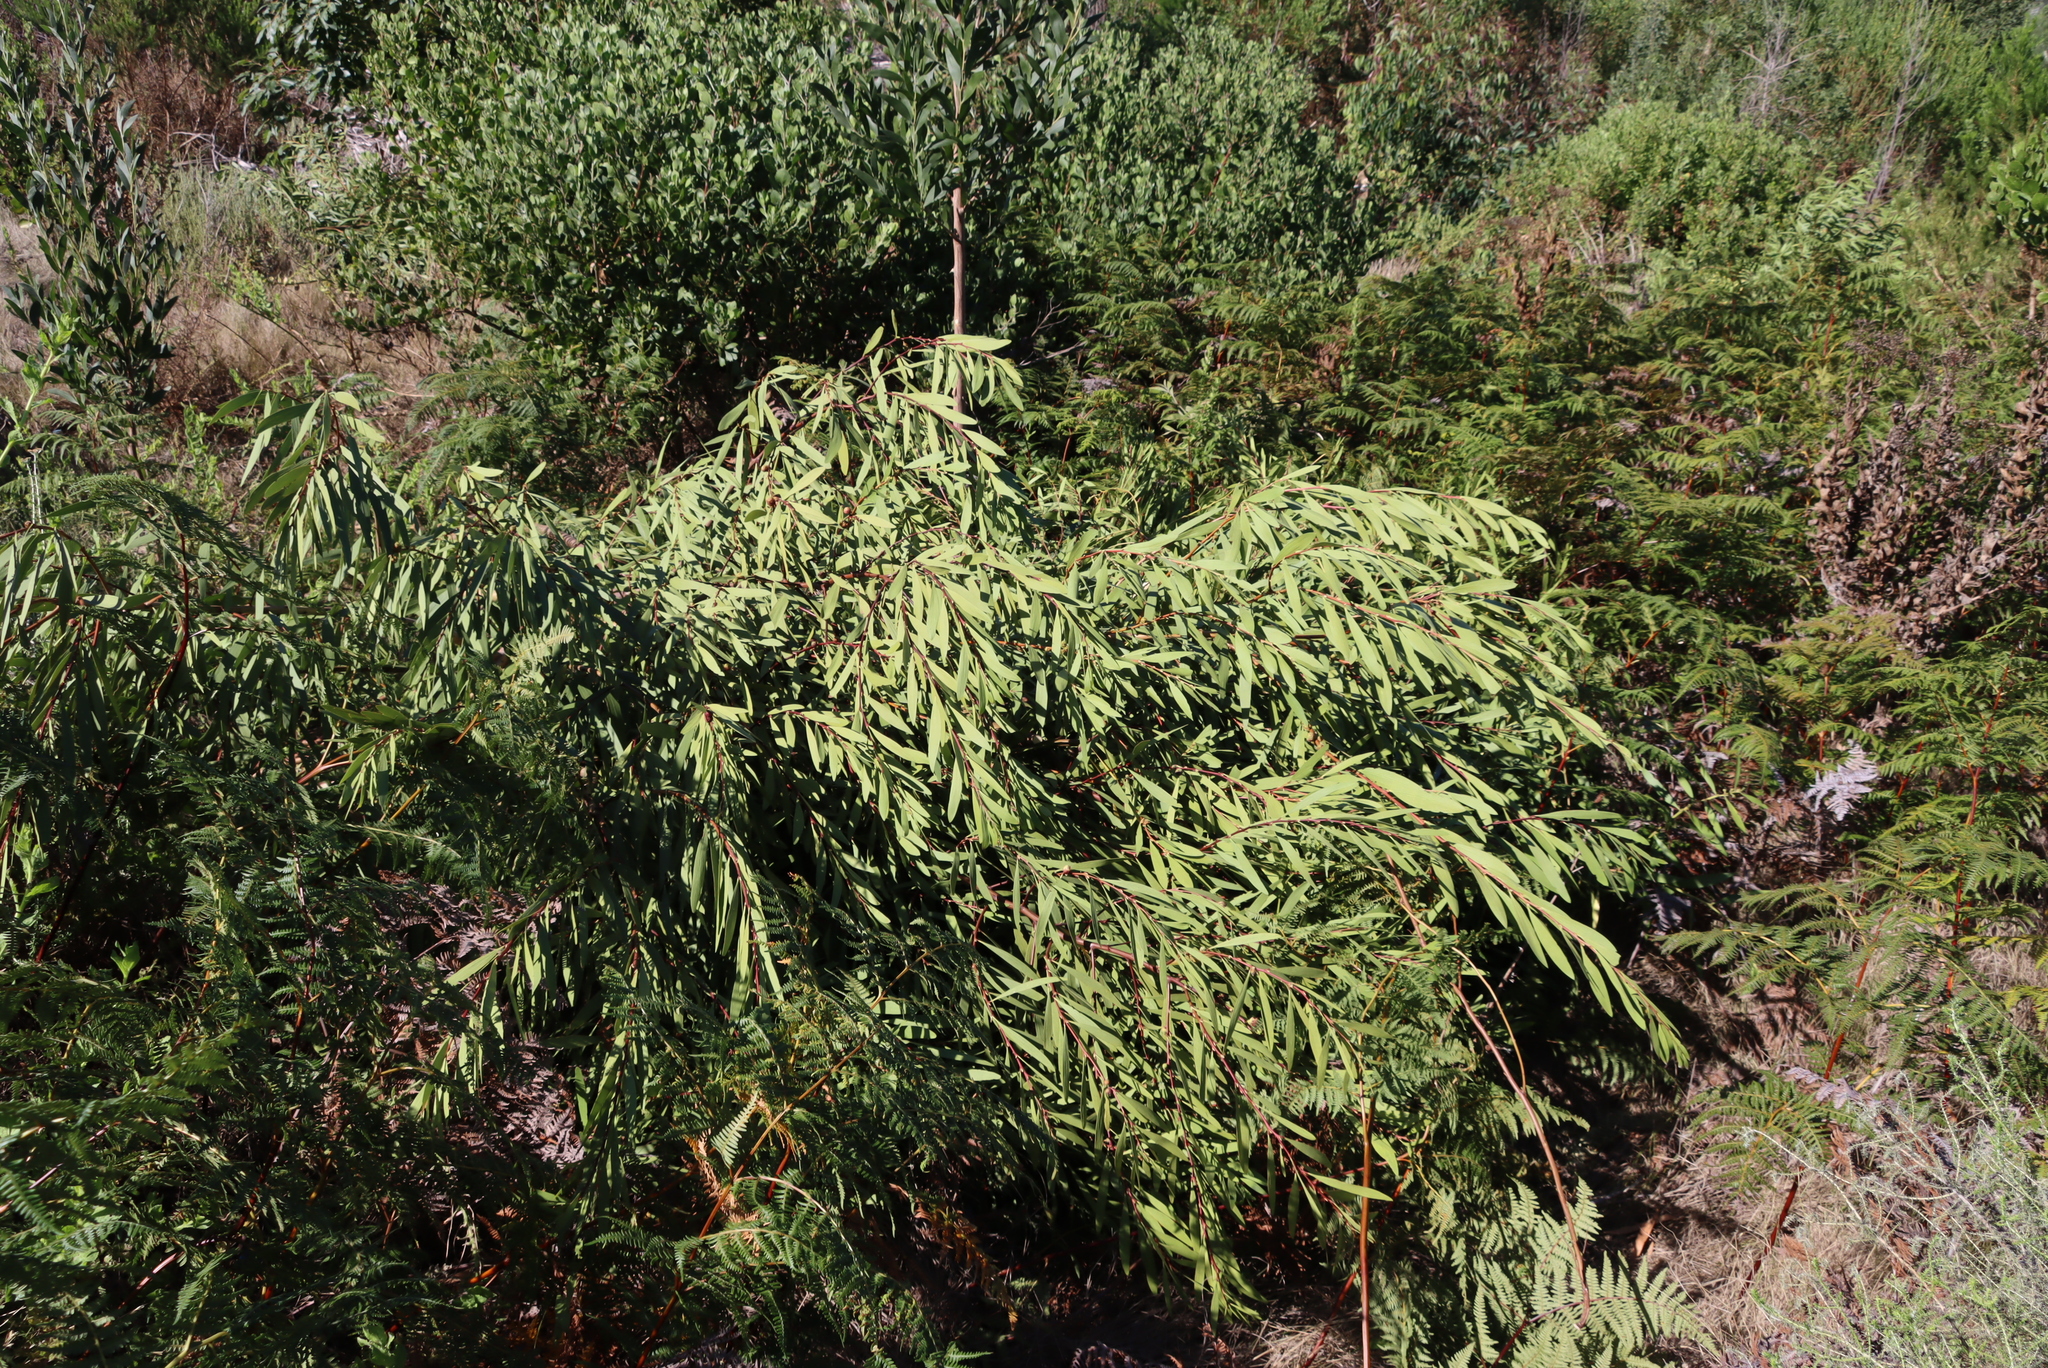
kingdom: Plantae
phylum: Tracheophyta
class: Magnoliopsida
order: Fabales
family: Fabaceae
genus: Acacia
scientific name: Acacia longifolia
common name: Sydney golden wattle
